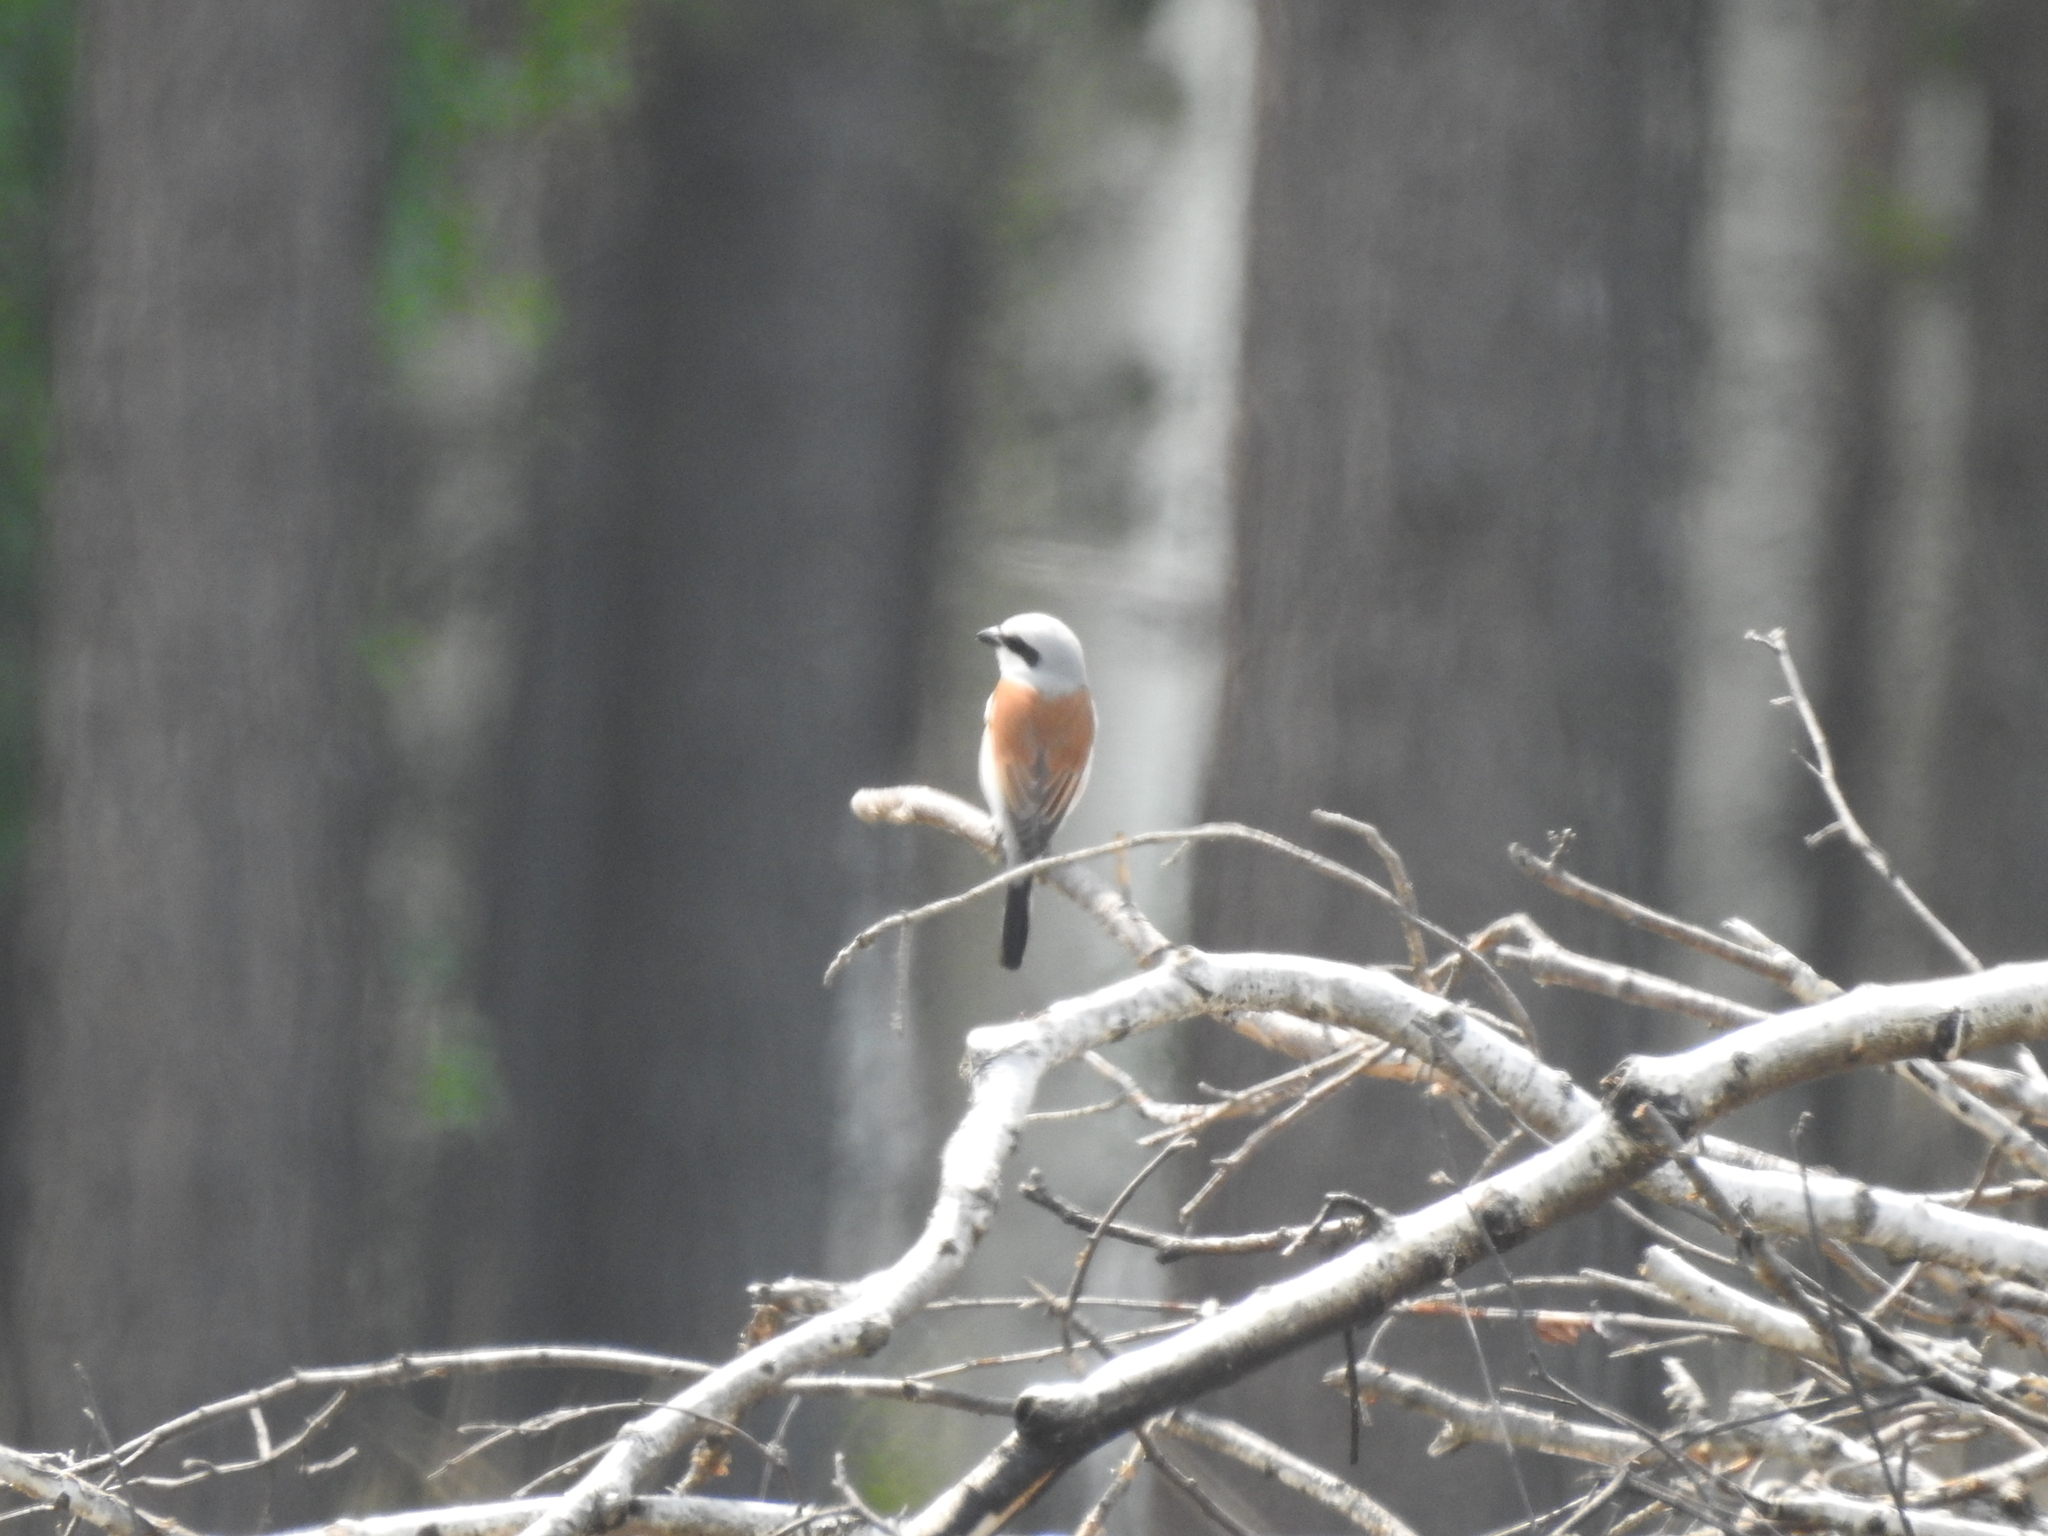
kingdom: Animalia
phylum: Chordata
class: Aves
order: Passeriformes
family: Laniidae
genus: Lanius
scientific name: Lanius collurio
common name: Red-backed shrike
